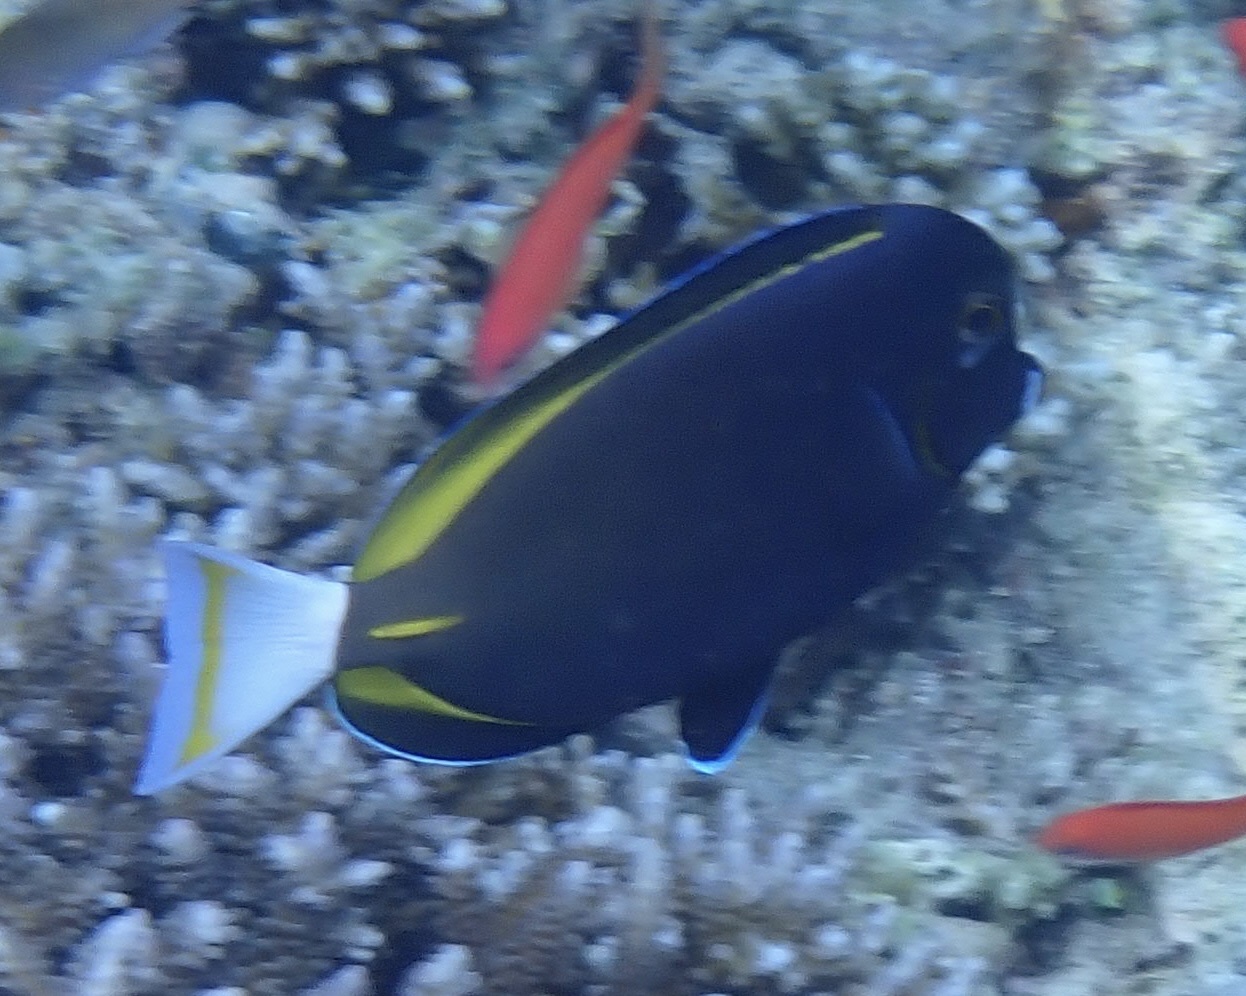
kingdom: Animalia
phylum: Chordata
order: Perciformes
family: Acanthuridae
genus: Acanthurus
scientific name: Acanthurus nigricans
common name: Whitecheek surgeonfish
